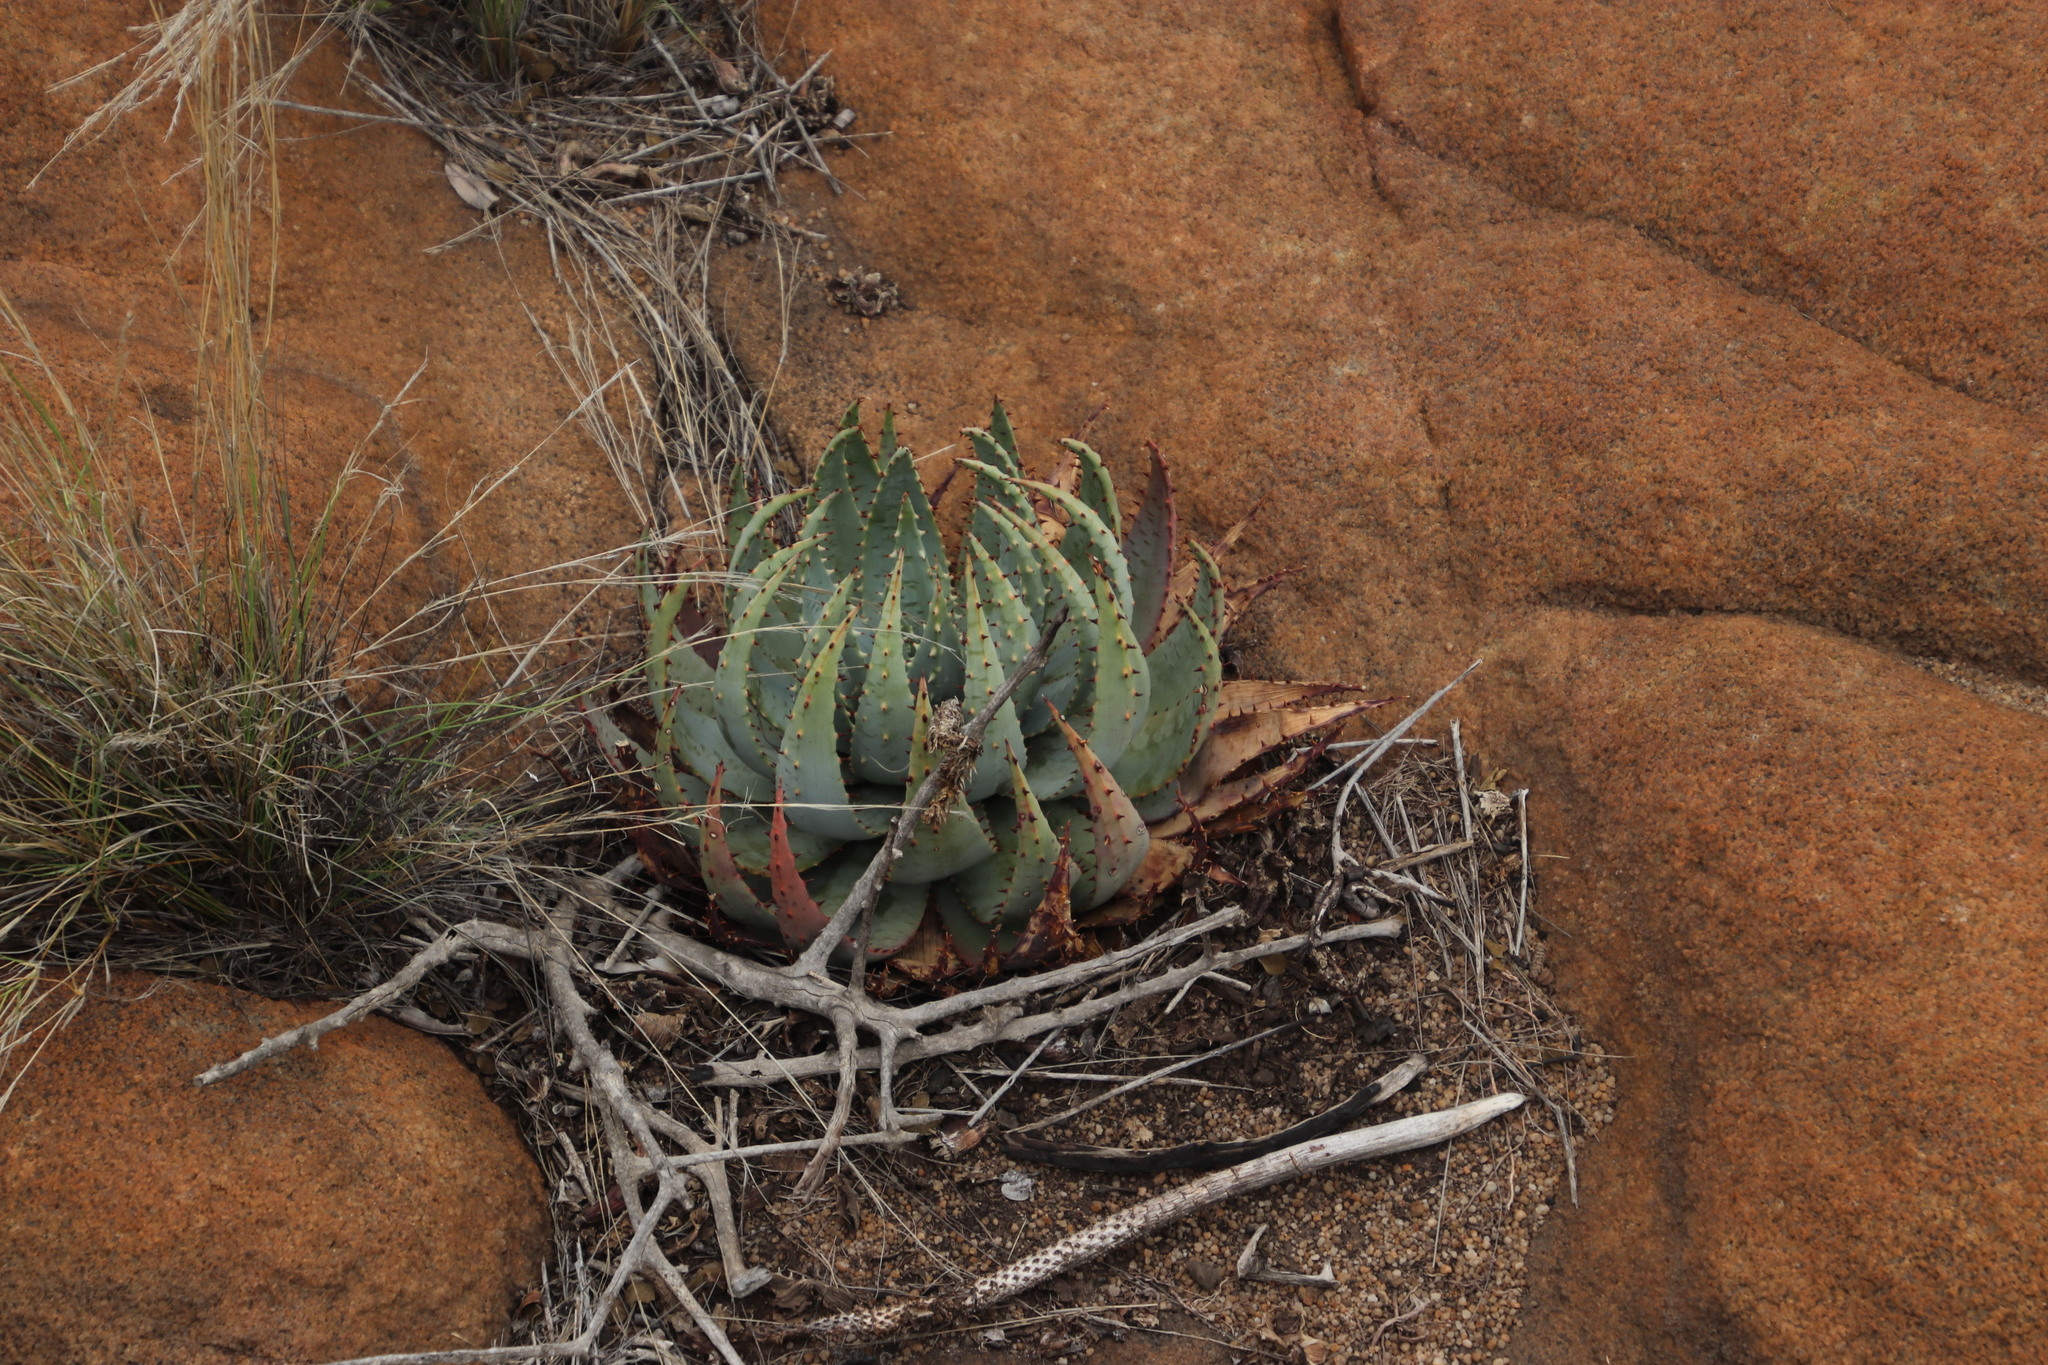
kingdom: Plantae
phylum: Tracheophyta
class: Liliopsida
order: Asparagales
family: Asphodelaceae
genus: Aloe
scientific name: Aloe peglerae
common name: Red-hot poker
